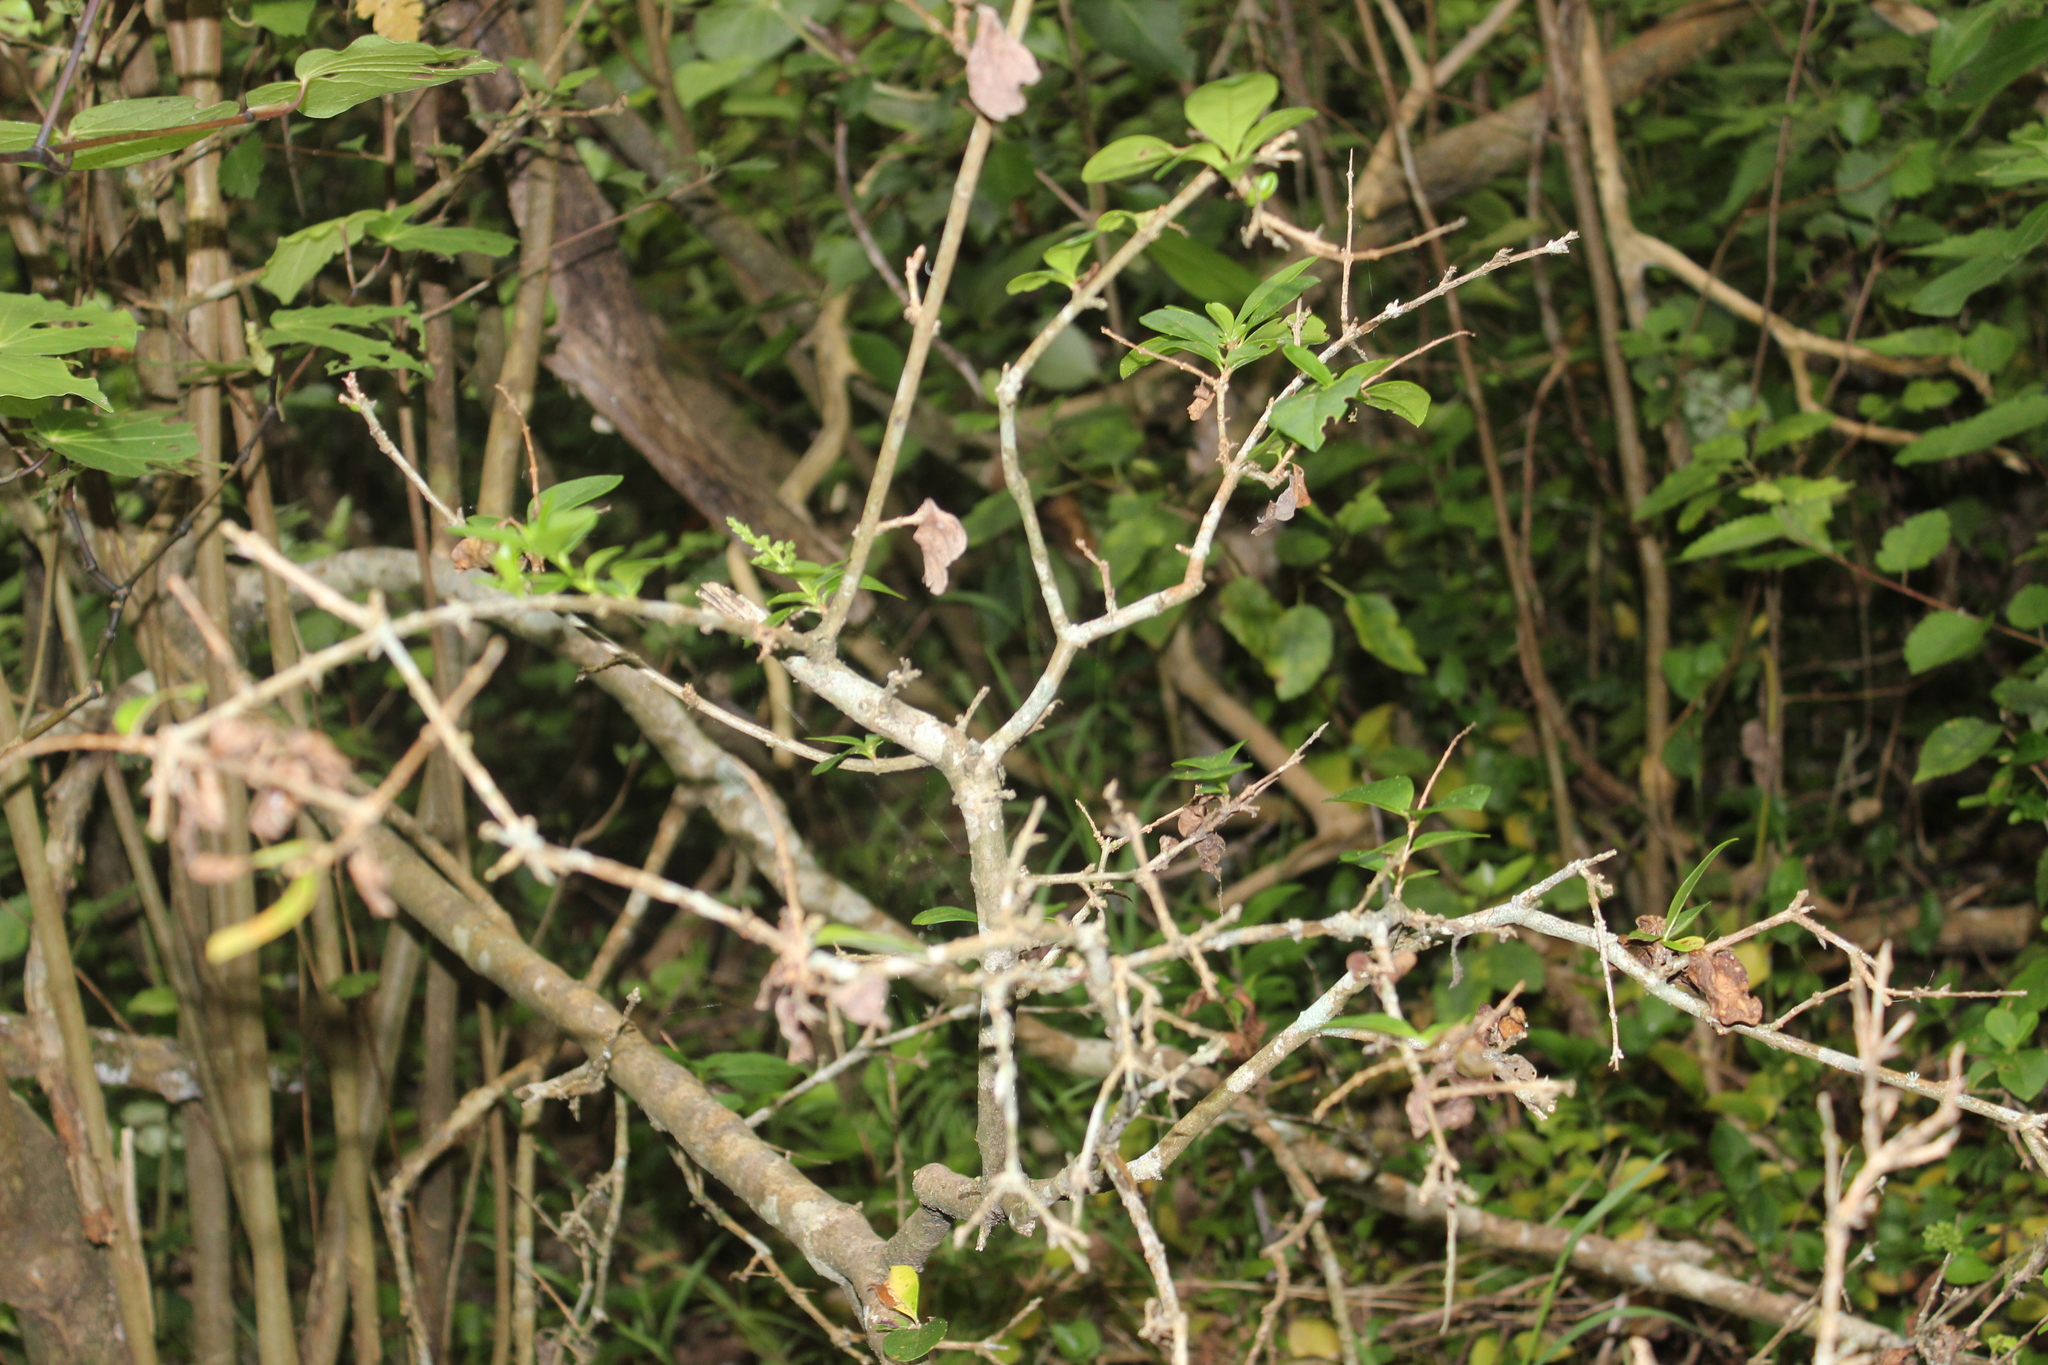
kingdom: Plantae
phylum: Tracheophyta
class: Magnoliopsida
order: Lamiales
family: Oleaceae
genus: Ligustrum
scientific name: Ligustrum ovalifolium
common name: California privet
